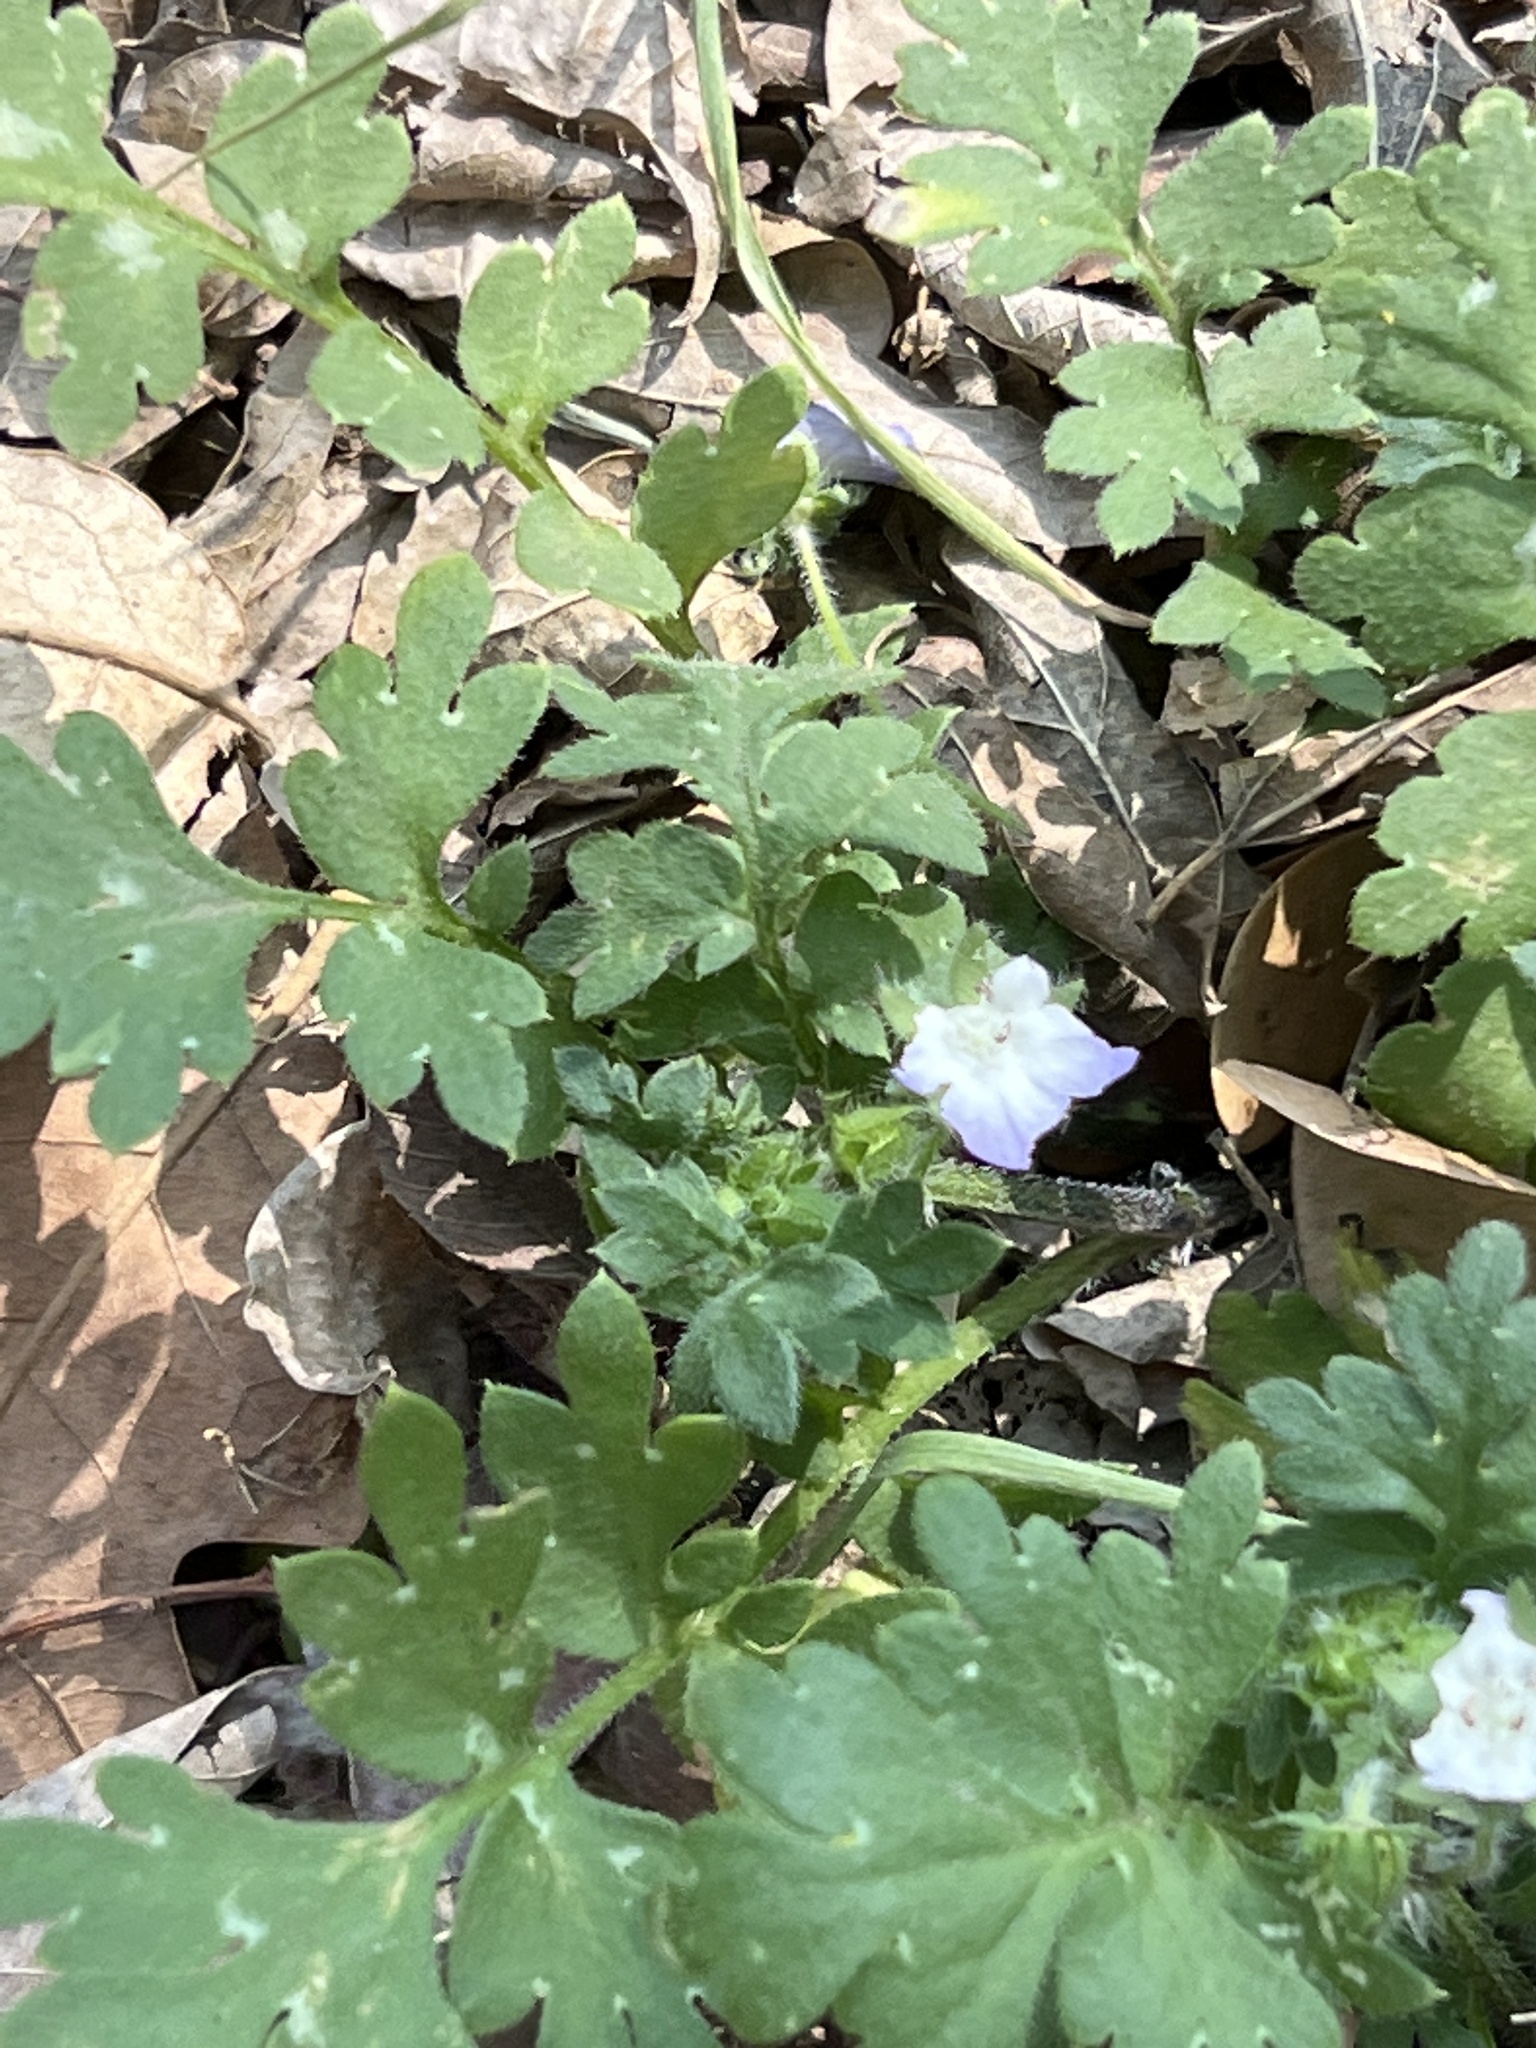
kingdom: Plantae
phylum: Tracheophyta
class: Magnoliopsida
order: Boraginales
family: Hydrophyllaceae
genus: Nemophila
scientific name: Nemophila phacelioides
